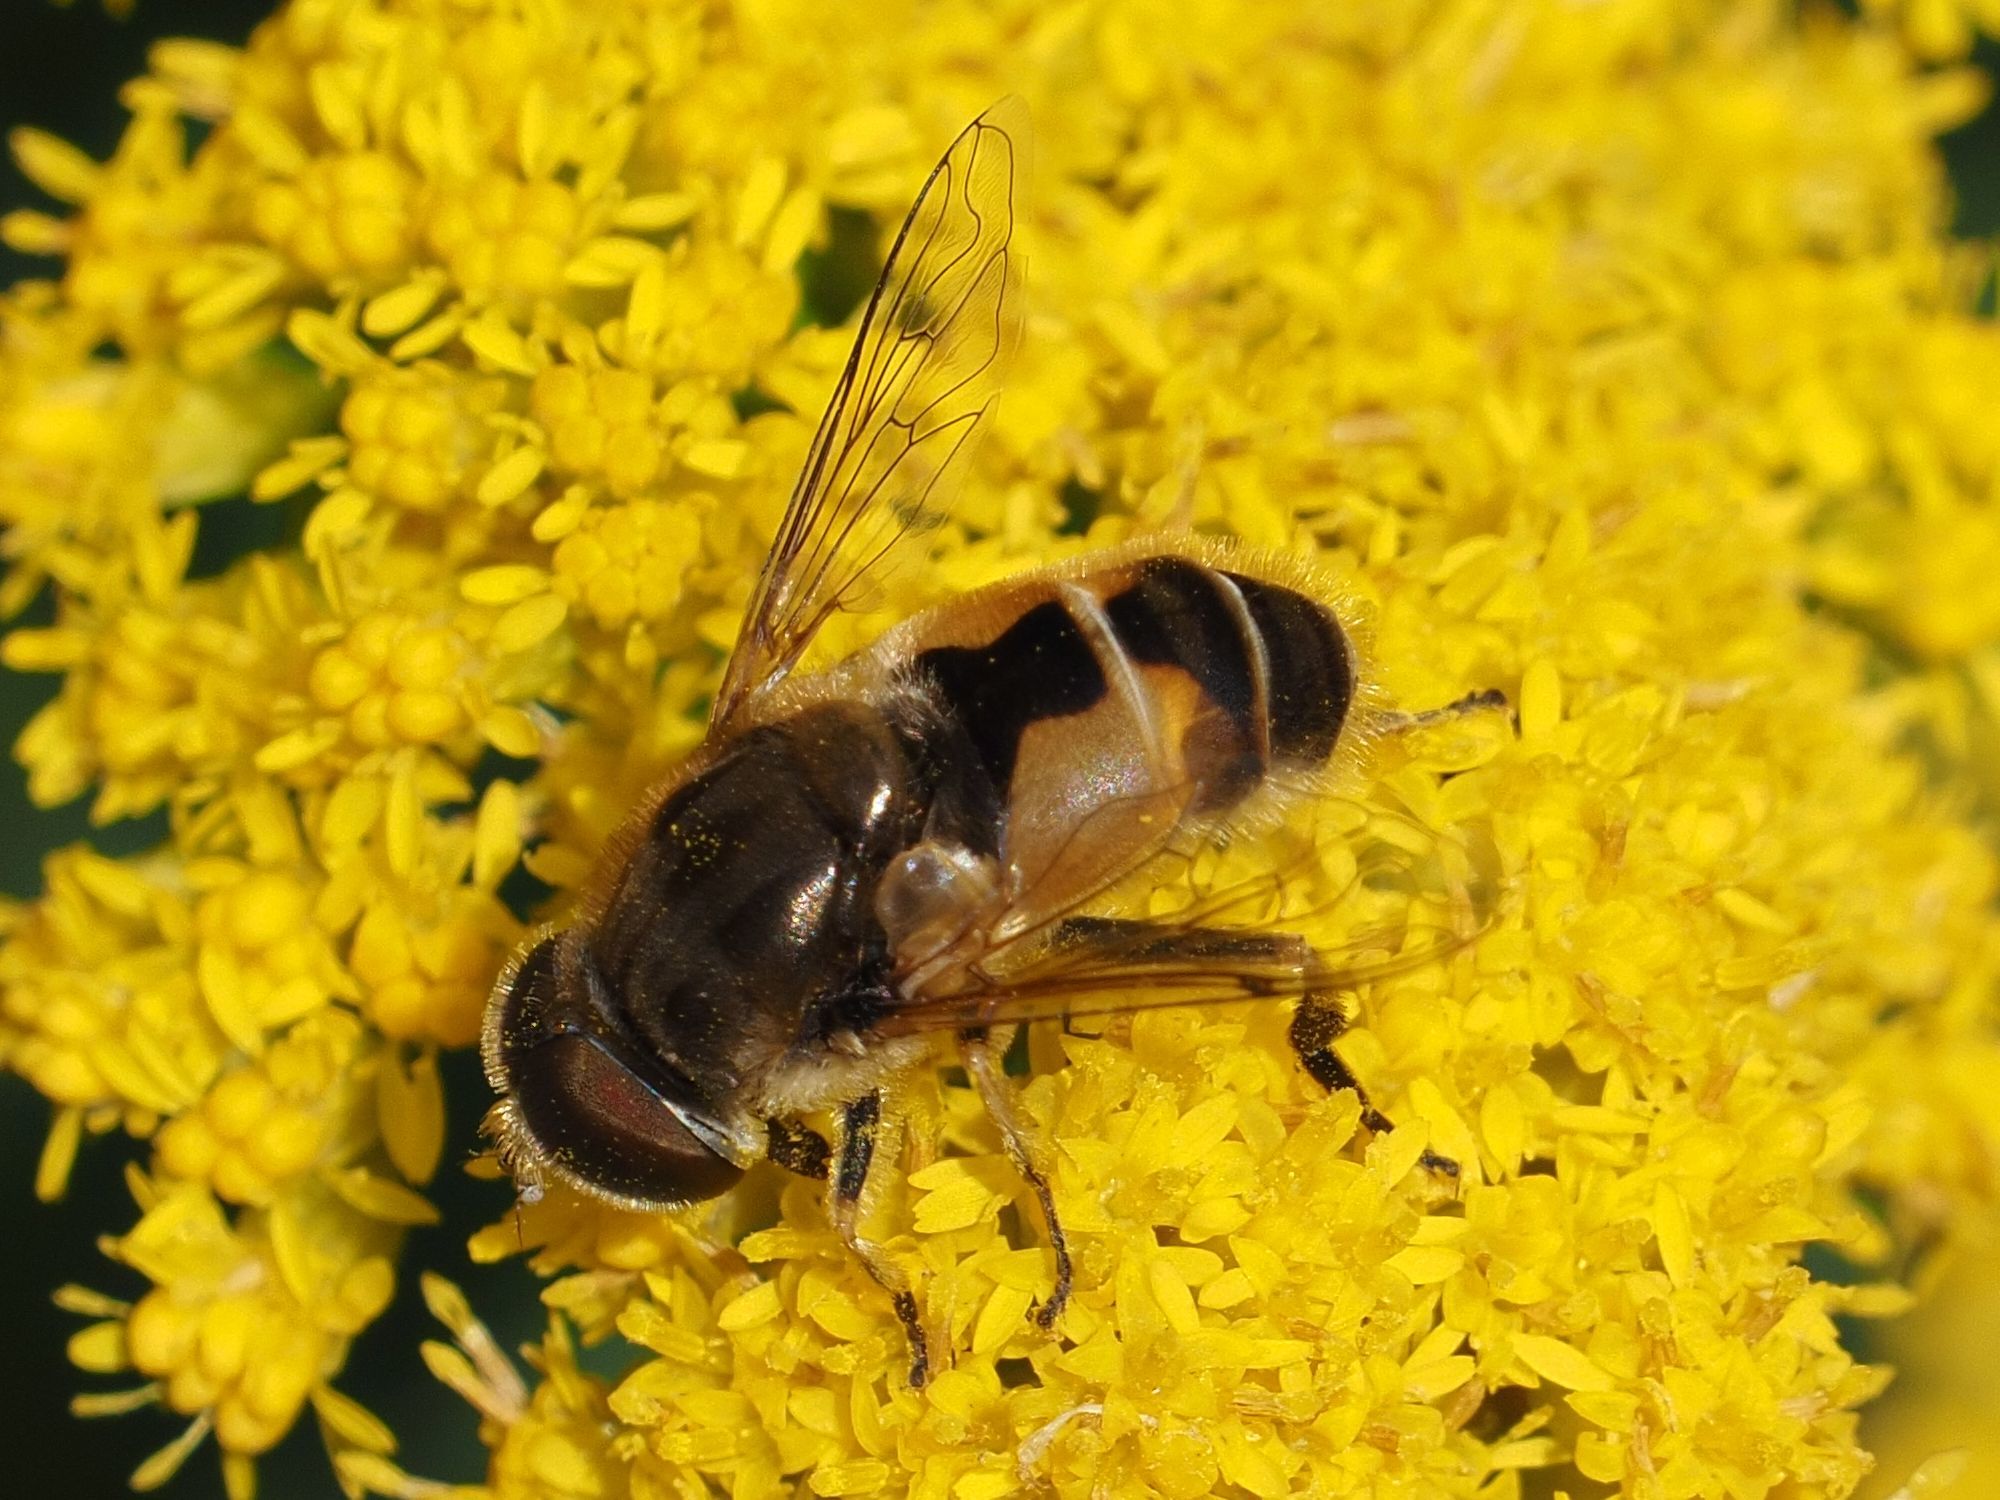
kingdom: Animalia
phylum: Arthropoda
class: Insecta
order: Diptera
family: Syrphidae
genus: Eristalis
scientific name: Eristalis arbustorum
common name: Hover fly
